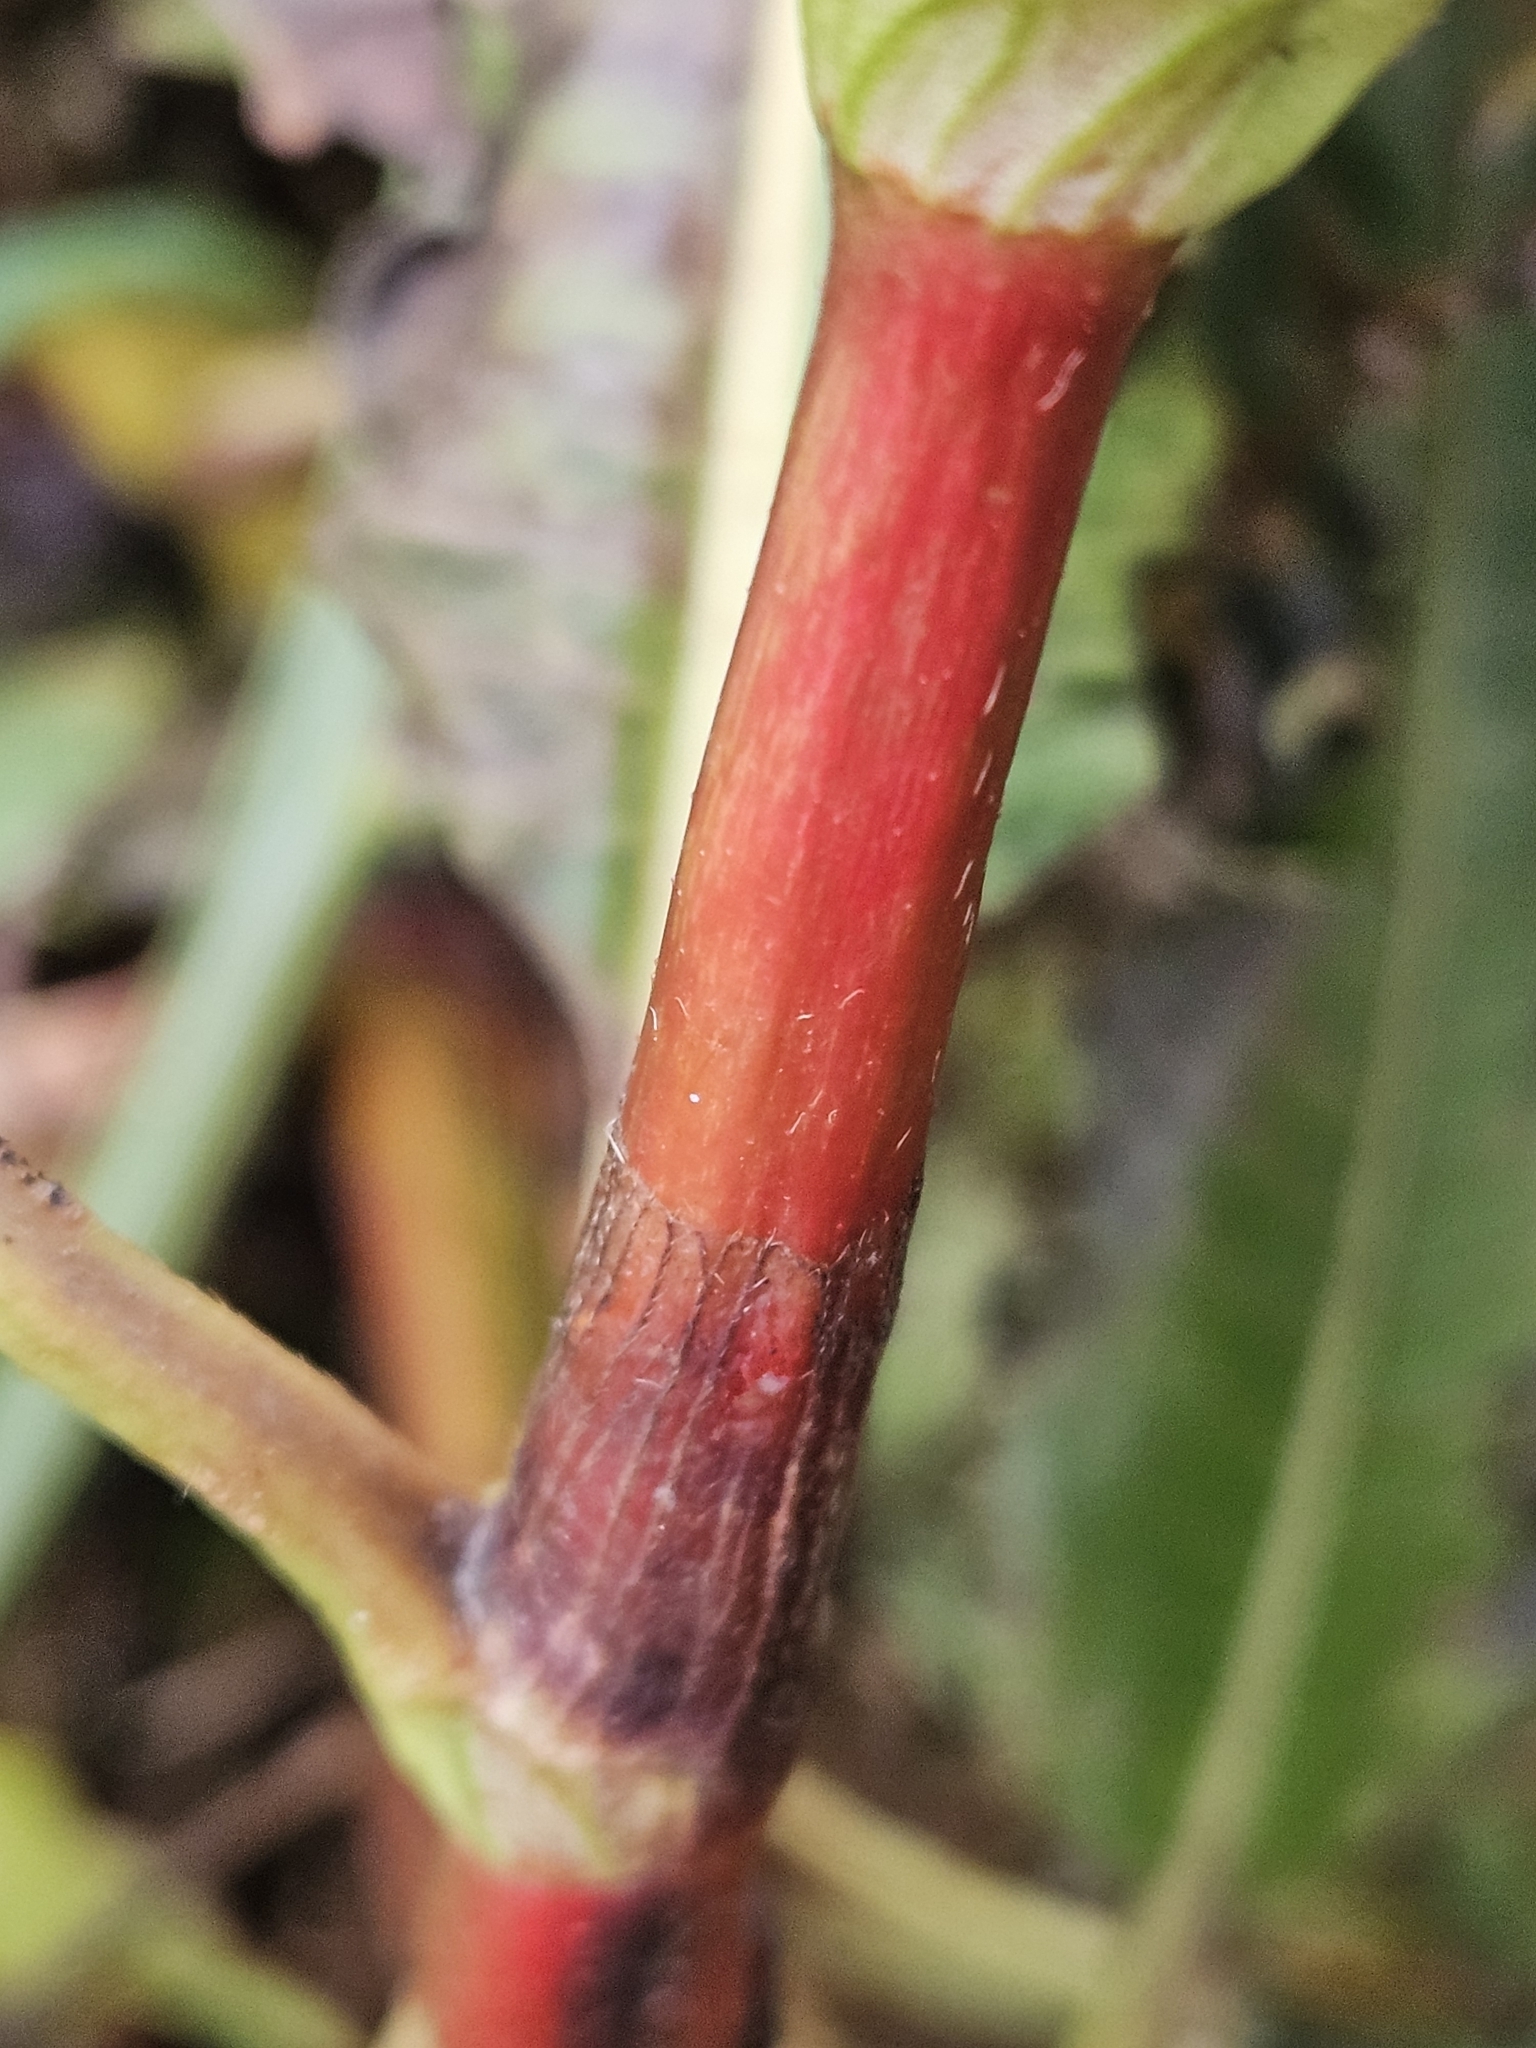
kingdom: Plantae
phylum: Tracheophyta
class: Magnoliopsida
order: Caryophyllales
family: Polygonaceae
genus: Persicaria
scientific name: Persicaria extremiorientalis
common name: Far-eastern smartweed
